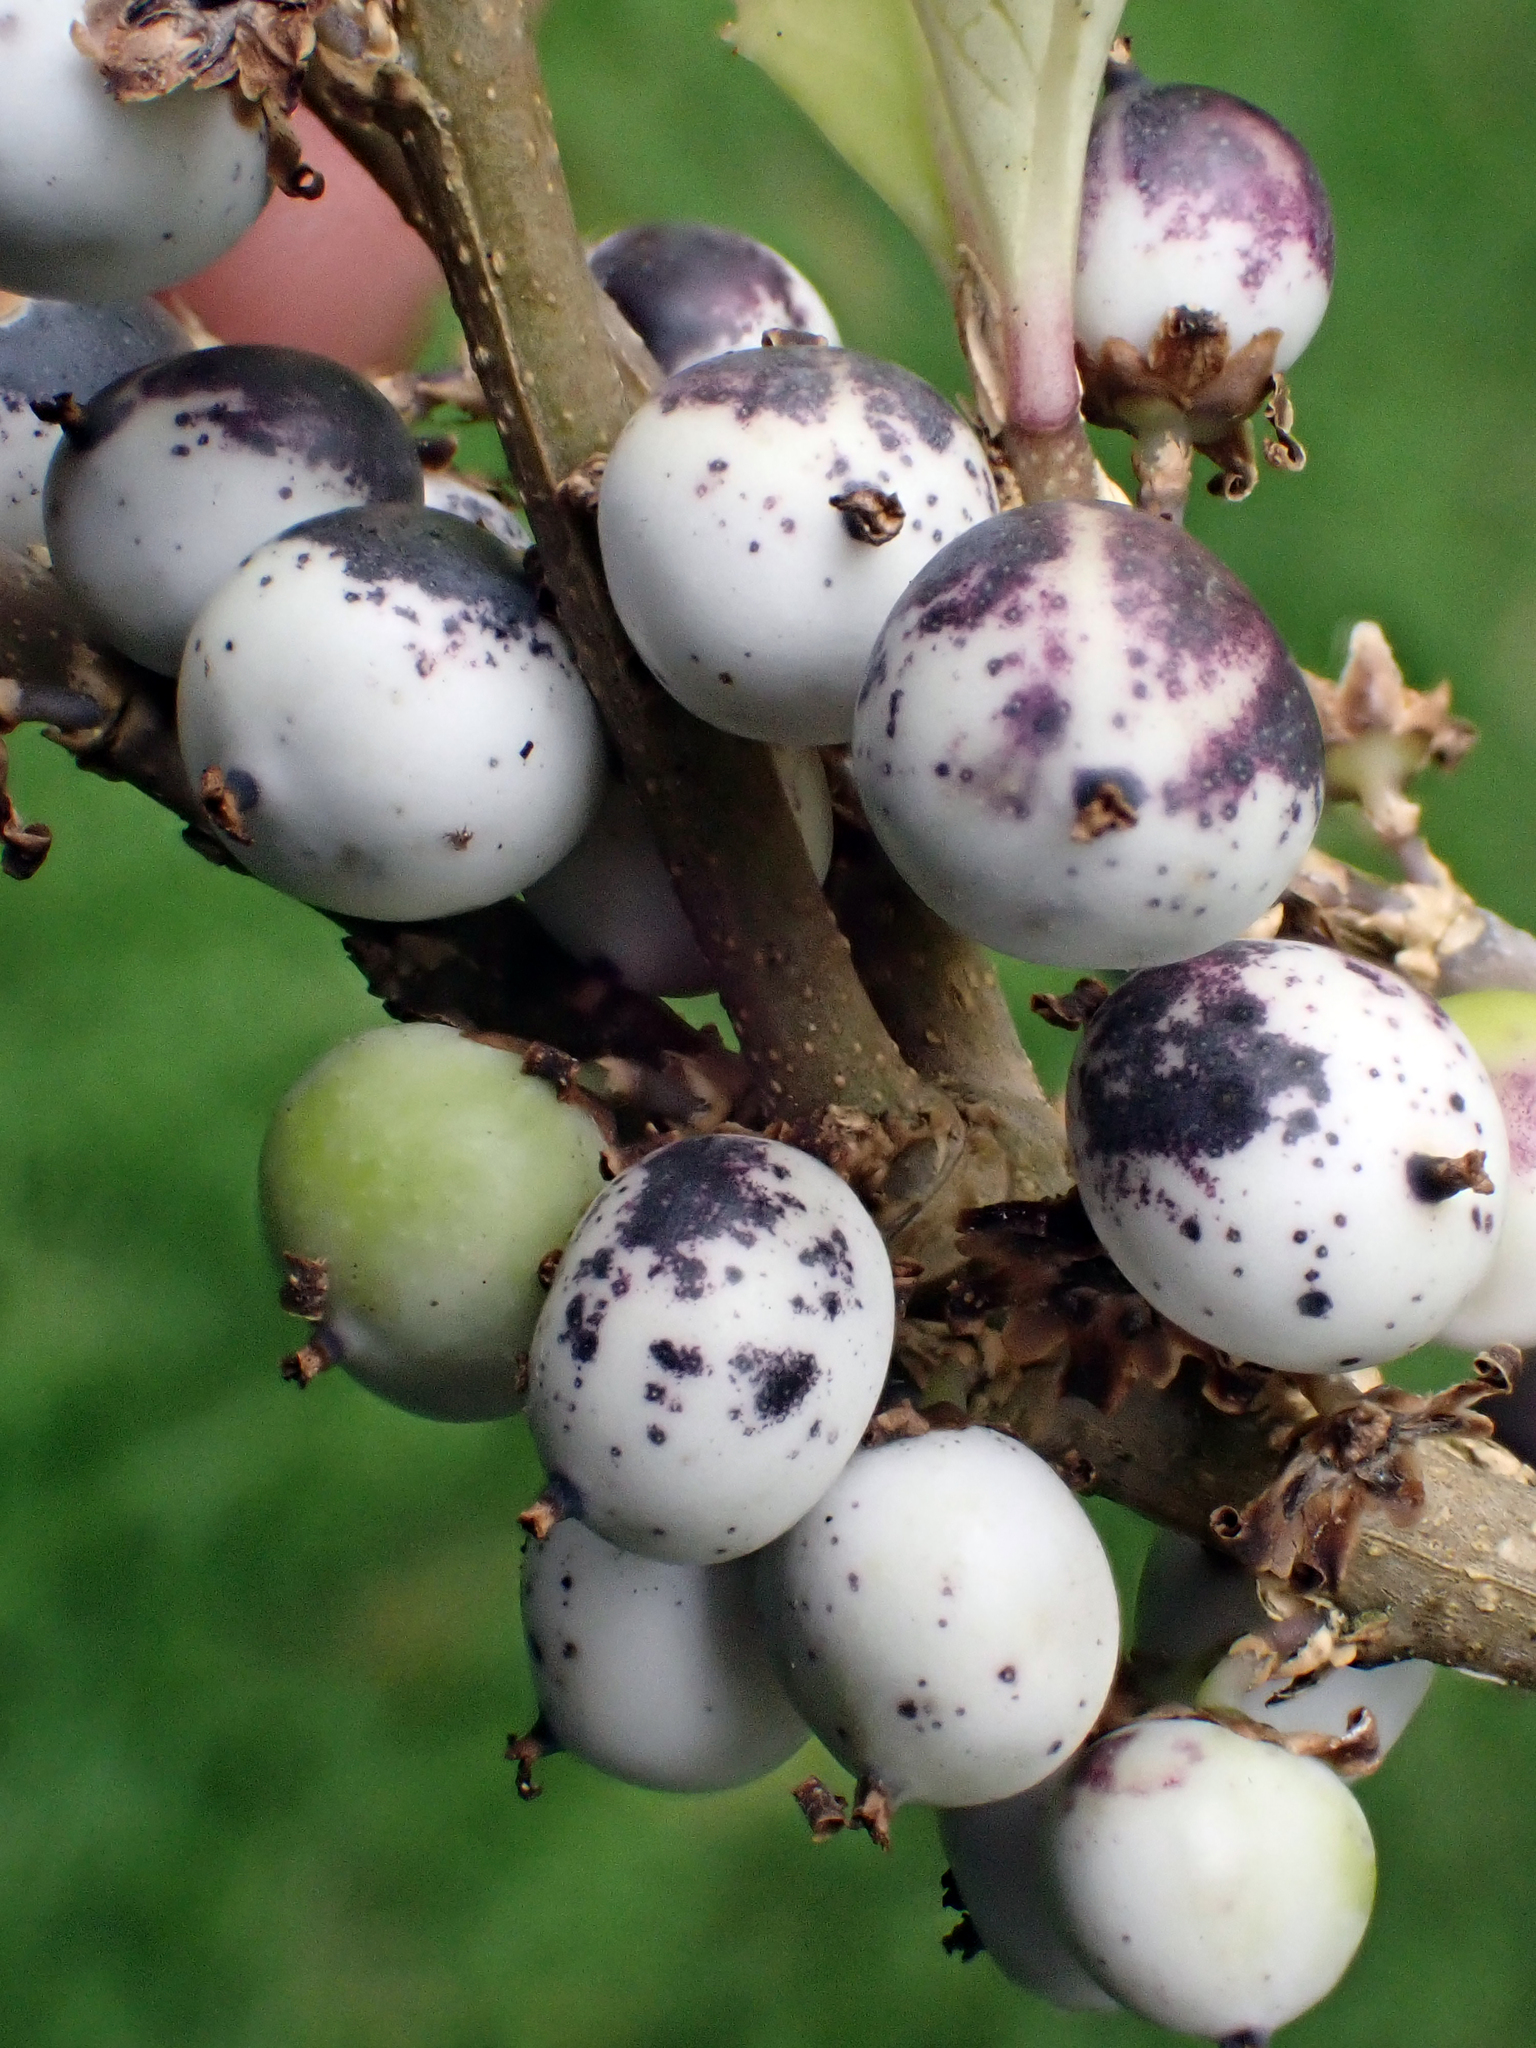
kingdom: Plantae
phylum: Tracheophyta
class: Magnoliopsida
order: Malpighiales
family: Violaceae
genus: Melicytus
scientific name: Melicytus chathamicus
